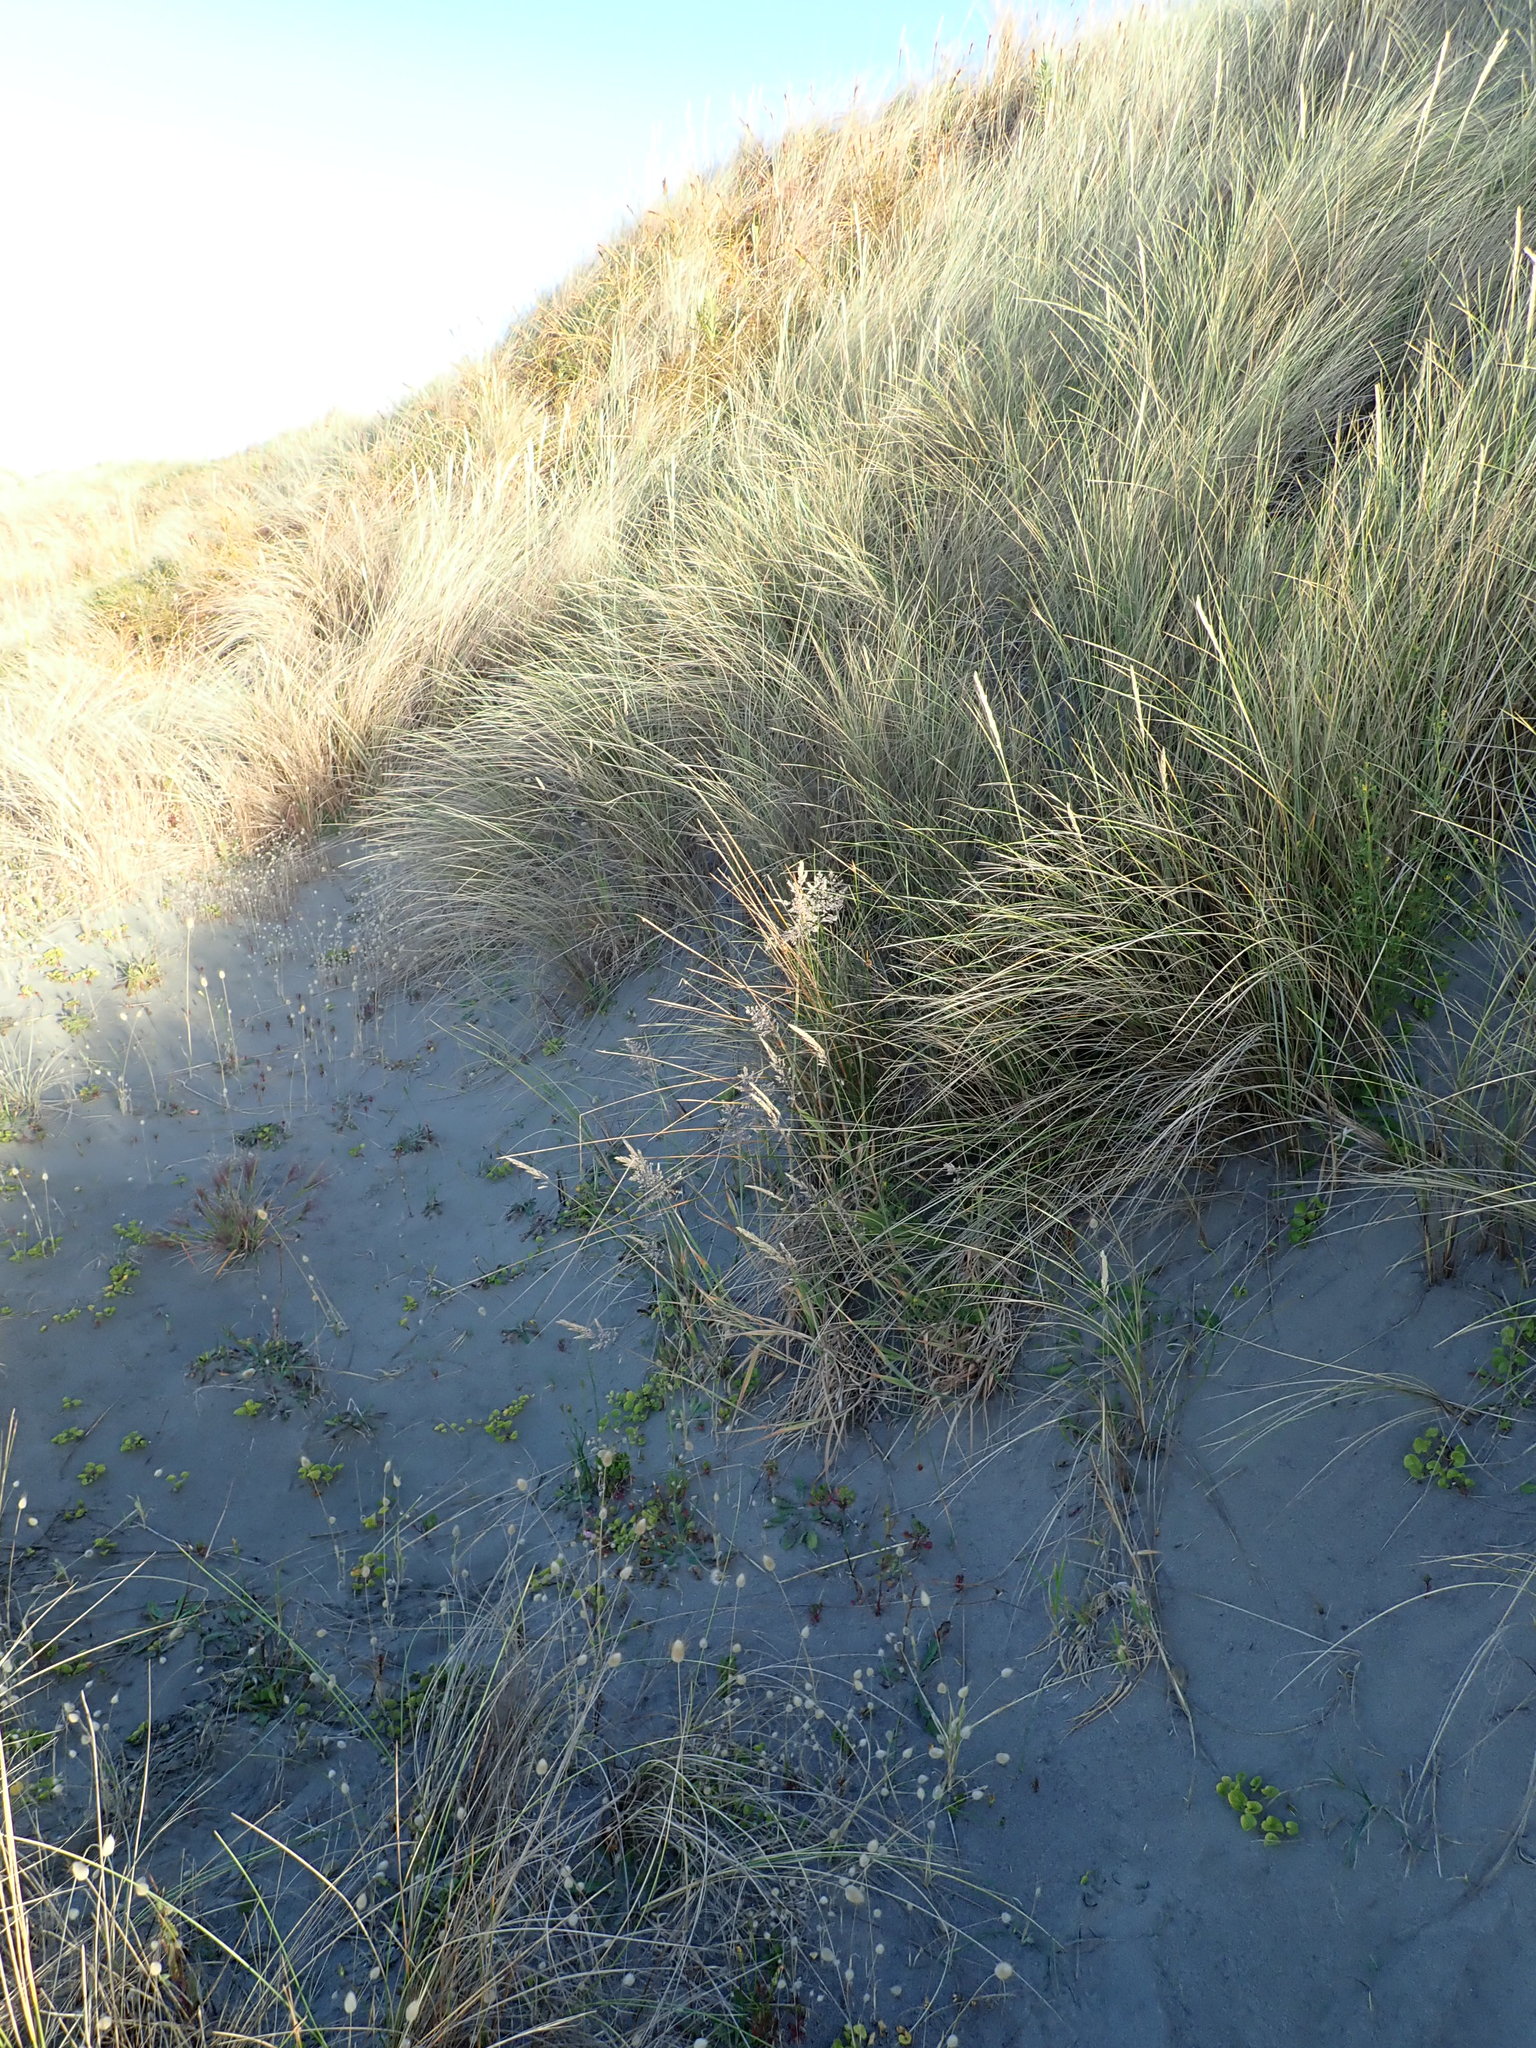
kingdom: Plantae
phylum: Tracheophyta
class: Liliopsida
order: Poales
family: Poaceae
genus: Holcus
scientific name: Holcus lanatus
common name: Yorkshire-fog
